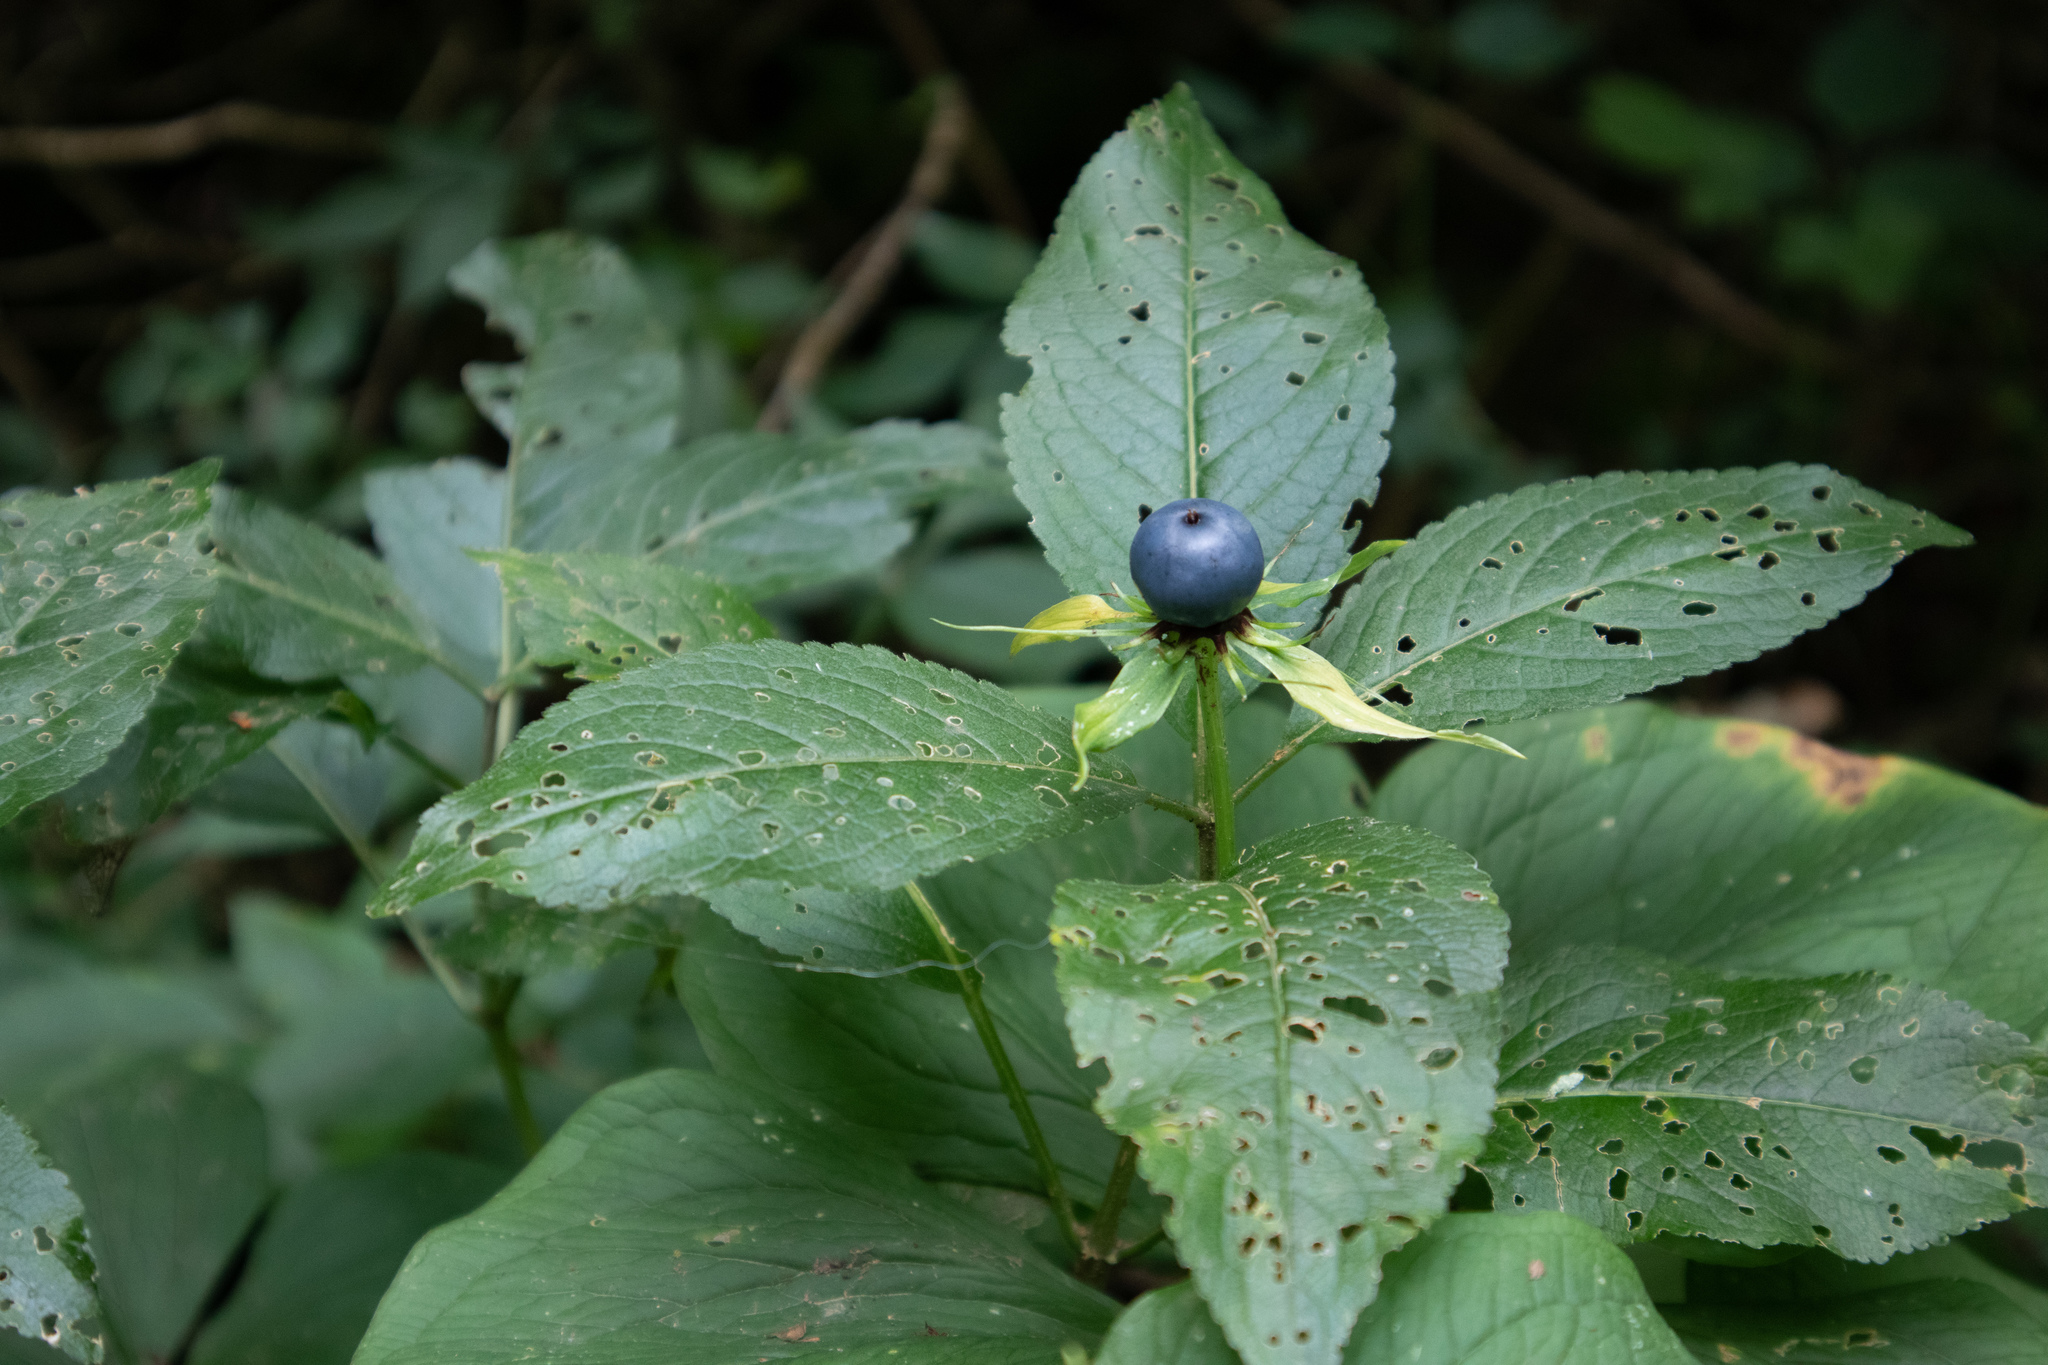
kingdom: Plantae
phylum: Tracheophyta
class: Liliopsida
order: Liliales
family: Melanthiaceae
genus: Paris
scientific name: Paris quadrifolia
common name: Herb-paris
